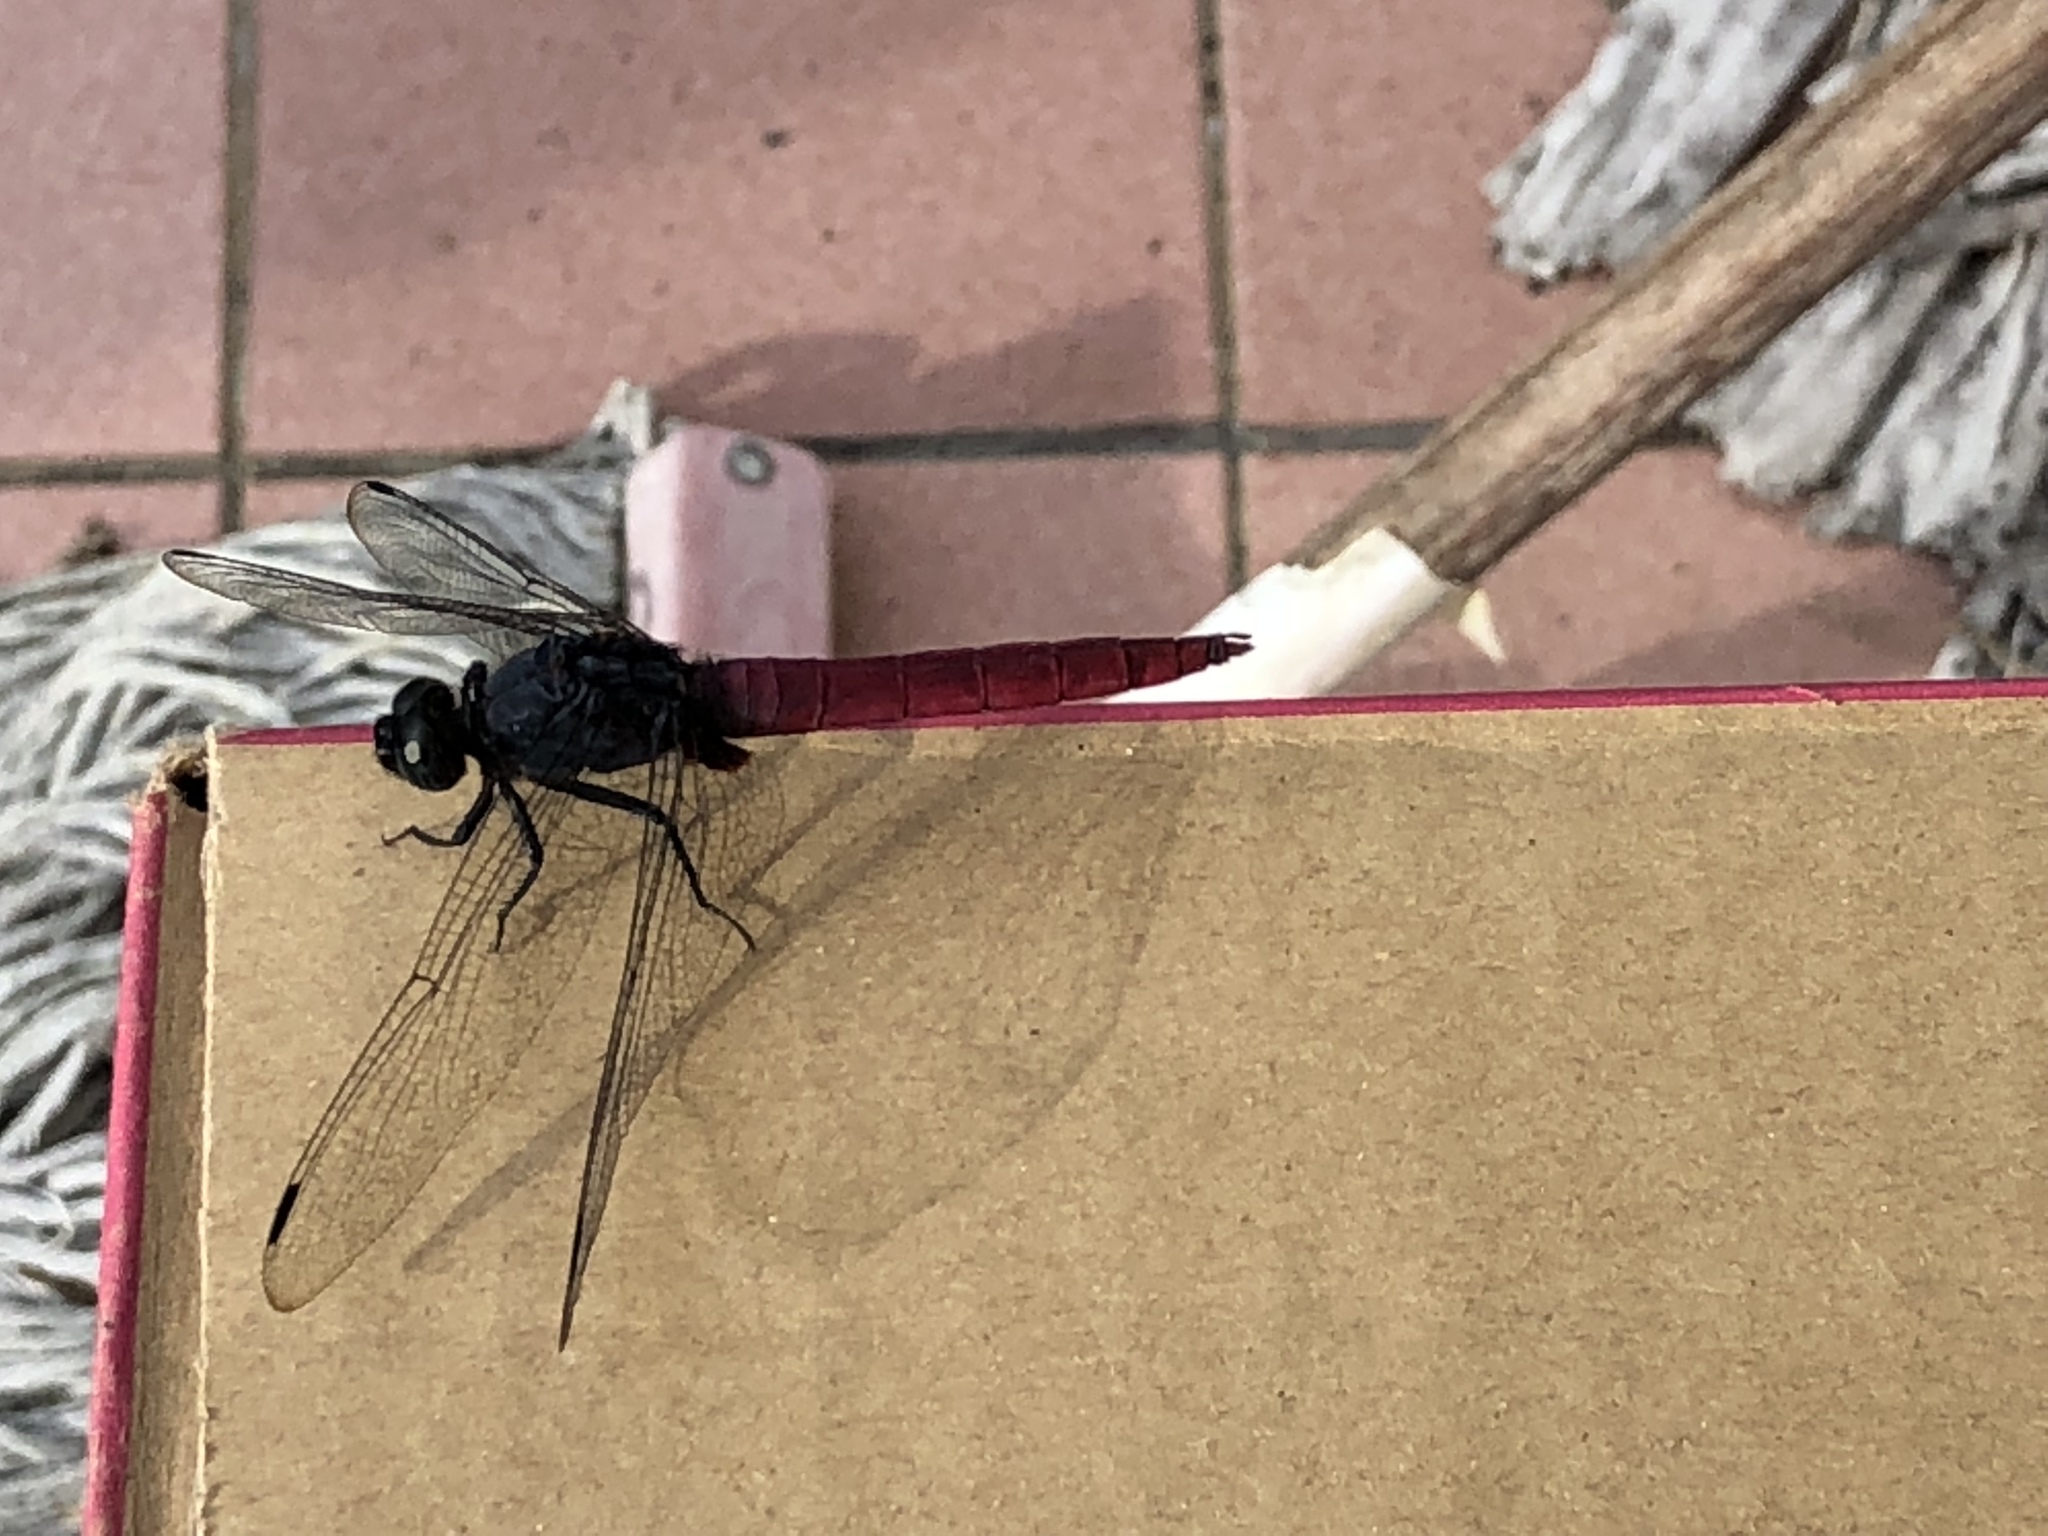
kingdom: Animalia
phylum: Arthropoda
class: Insecta
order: Odonata
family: Libellulidae
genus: Orthetrum
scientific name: Orthetrum pruinosum
